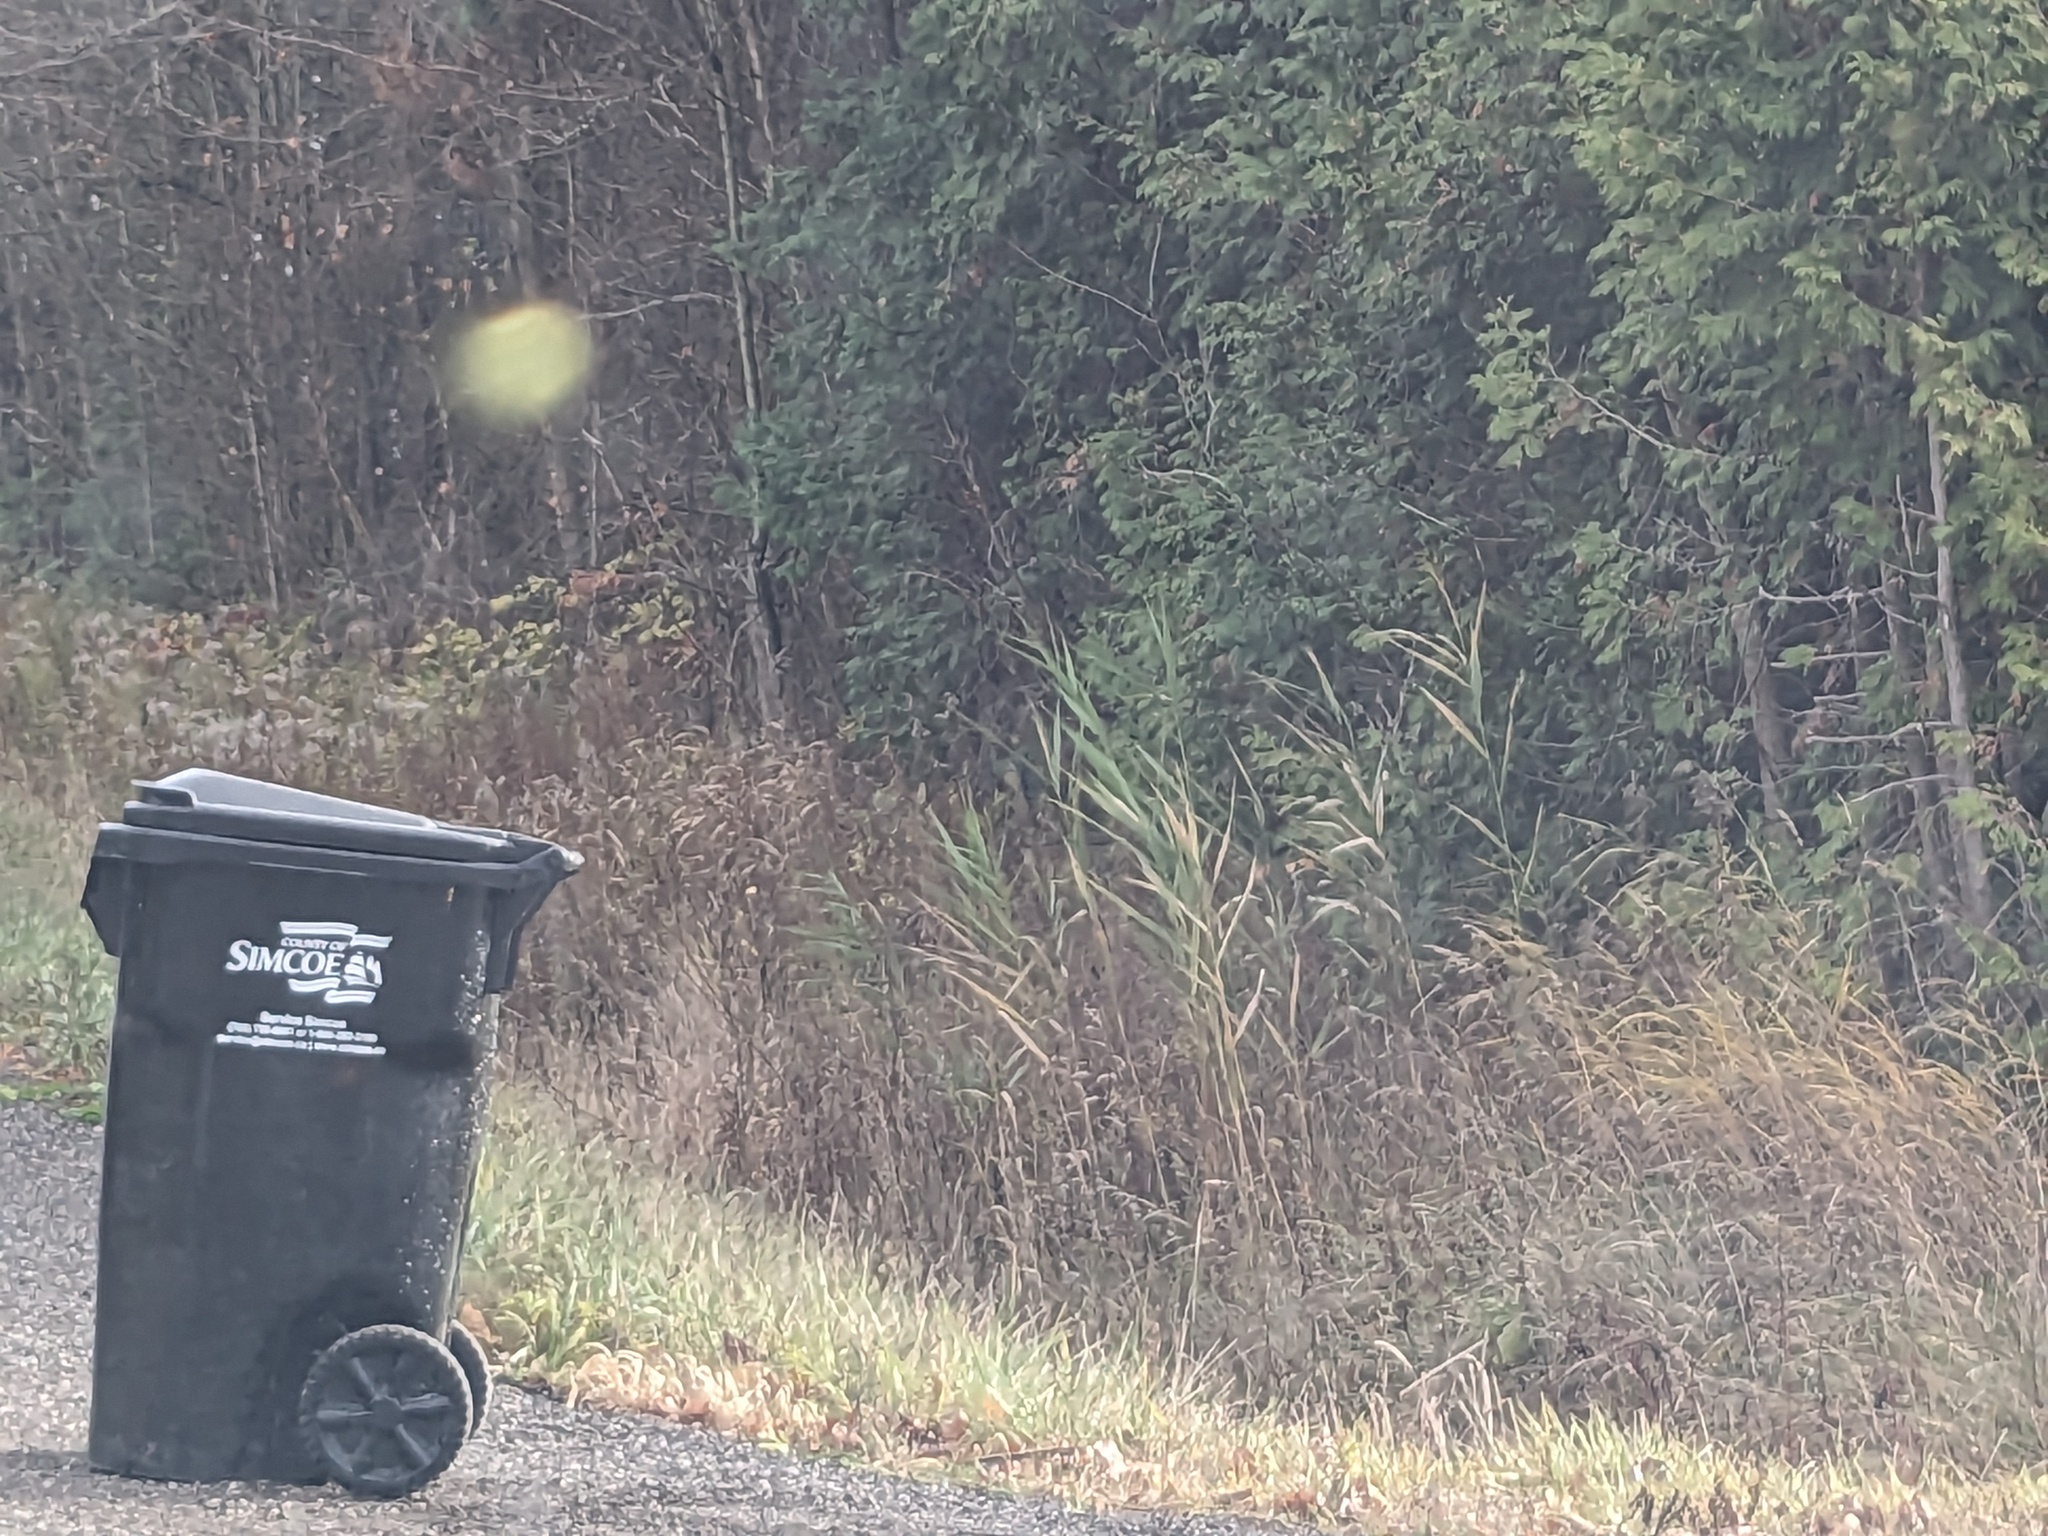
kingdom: Plantae
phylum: Tracheophyta
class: Liliopsida
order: Poales
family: Poaceae
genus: Phragmites
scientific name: Phragmites australis
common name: Common reed
